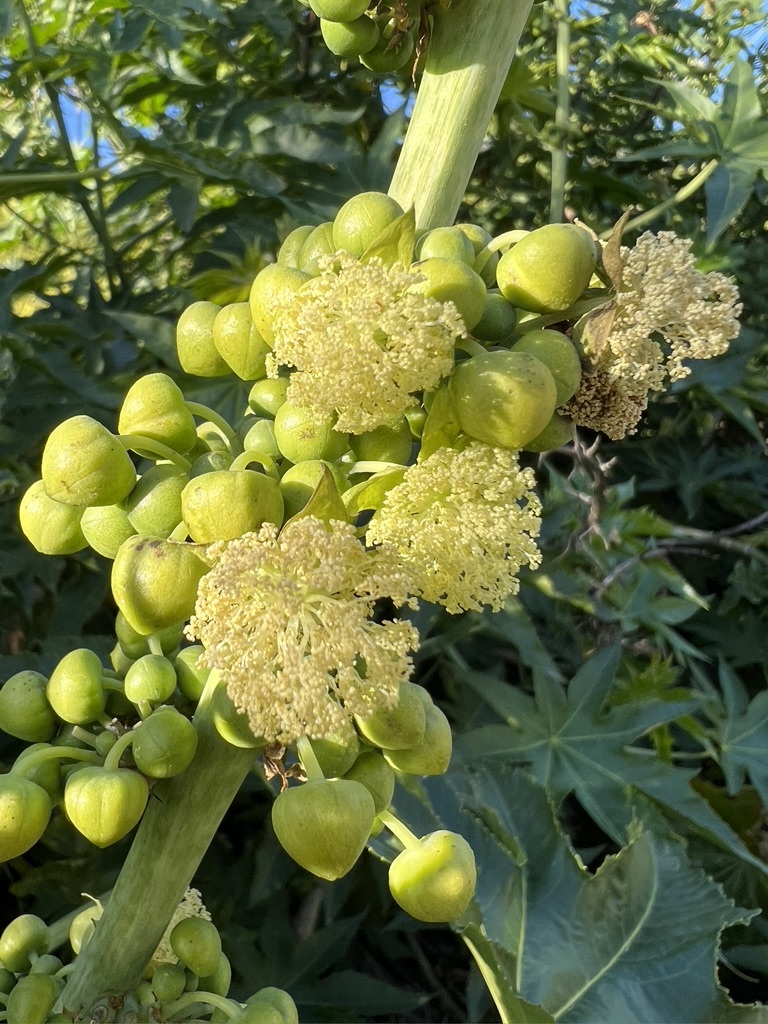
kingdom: Plantae
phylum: Tracheophyta
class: Magnoliopsida
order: Malpighiales
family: Euphorbiaceae
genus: Ricinus
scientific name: Ricinus communis
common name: Castor-oil-plant
